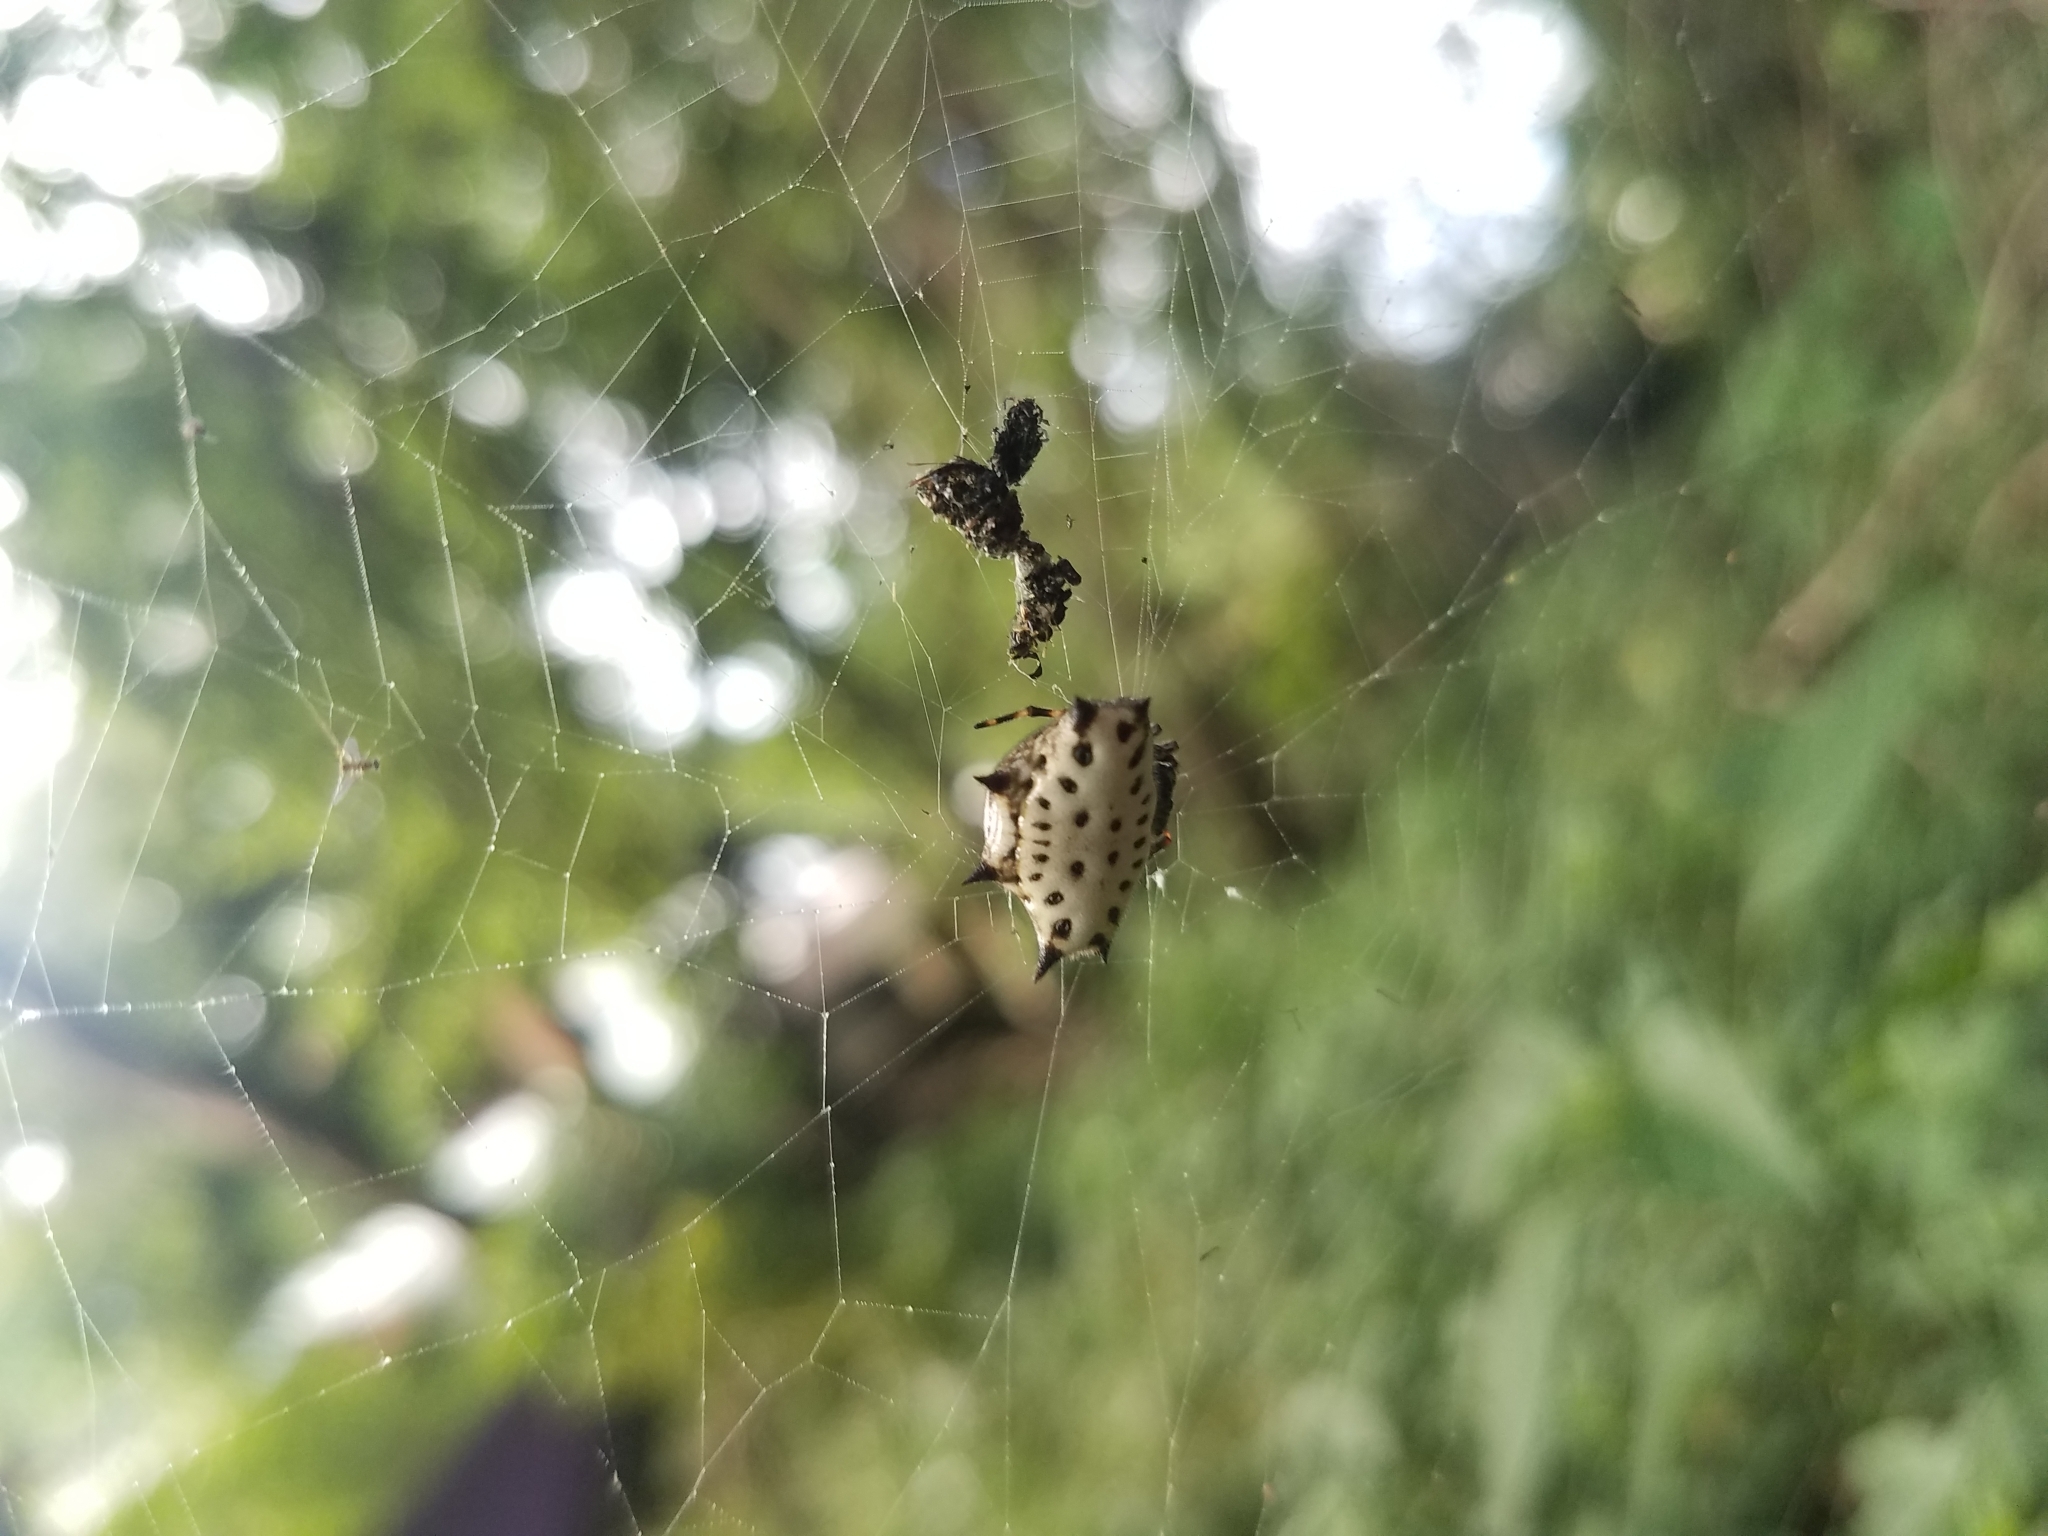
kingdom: Animalia
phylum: Arthropoda
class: Arachnida
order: Araneae
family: Araneidae
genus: Gasteracantha
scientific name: Gasteracantha cancriformis
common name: Orb weavers
